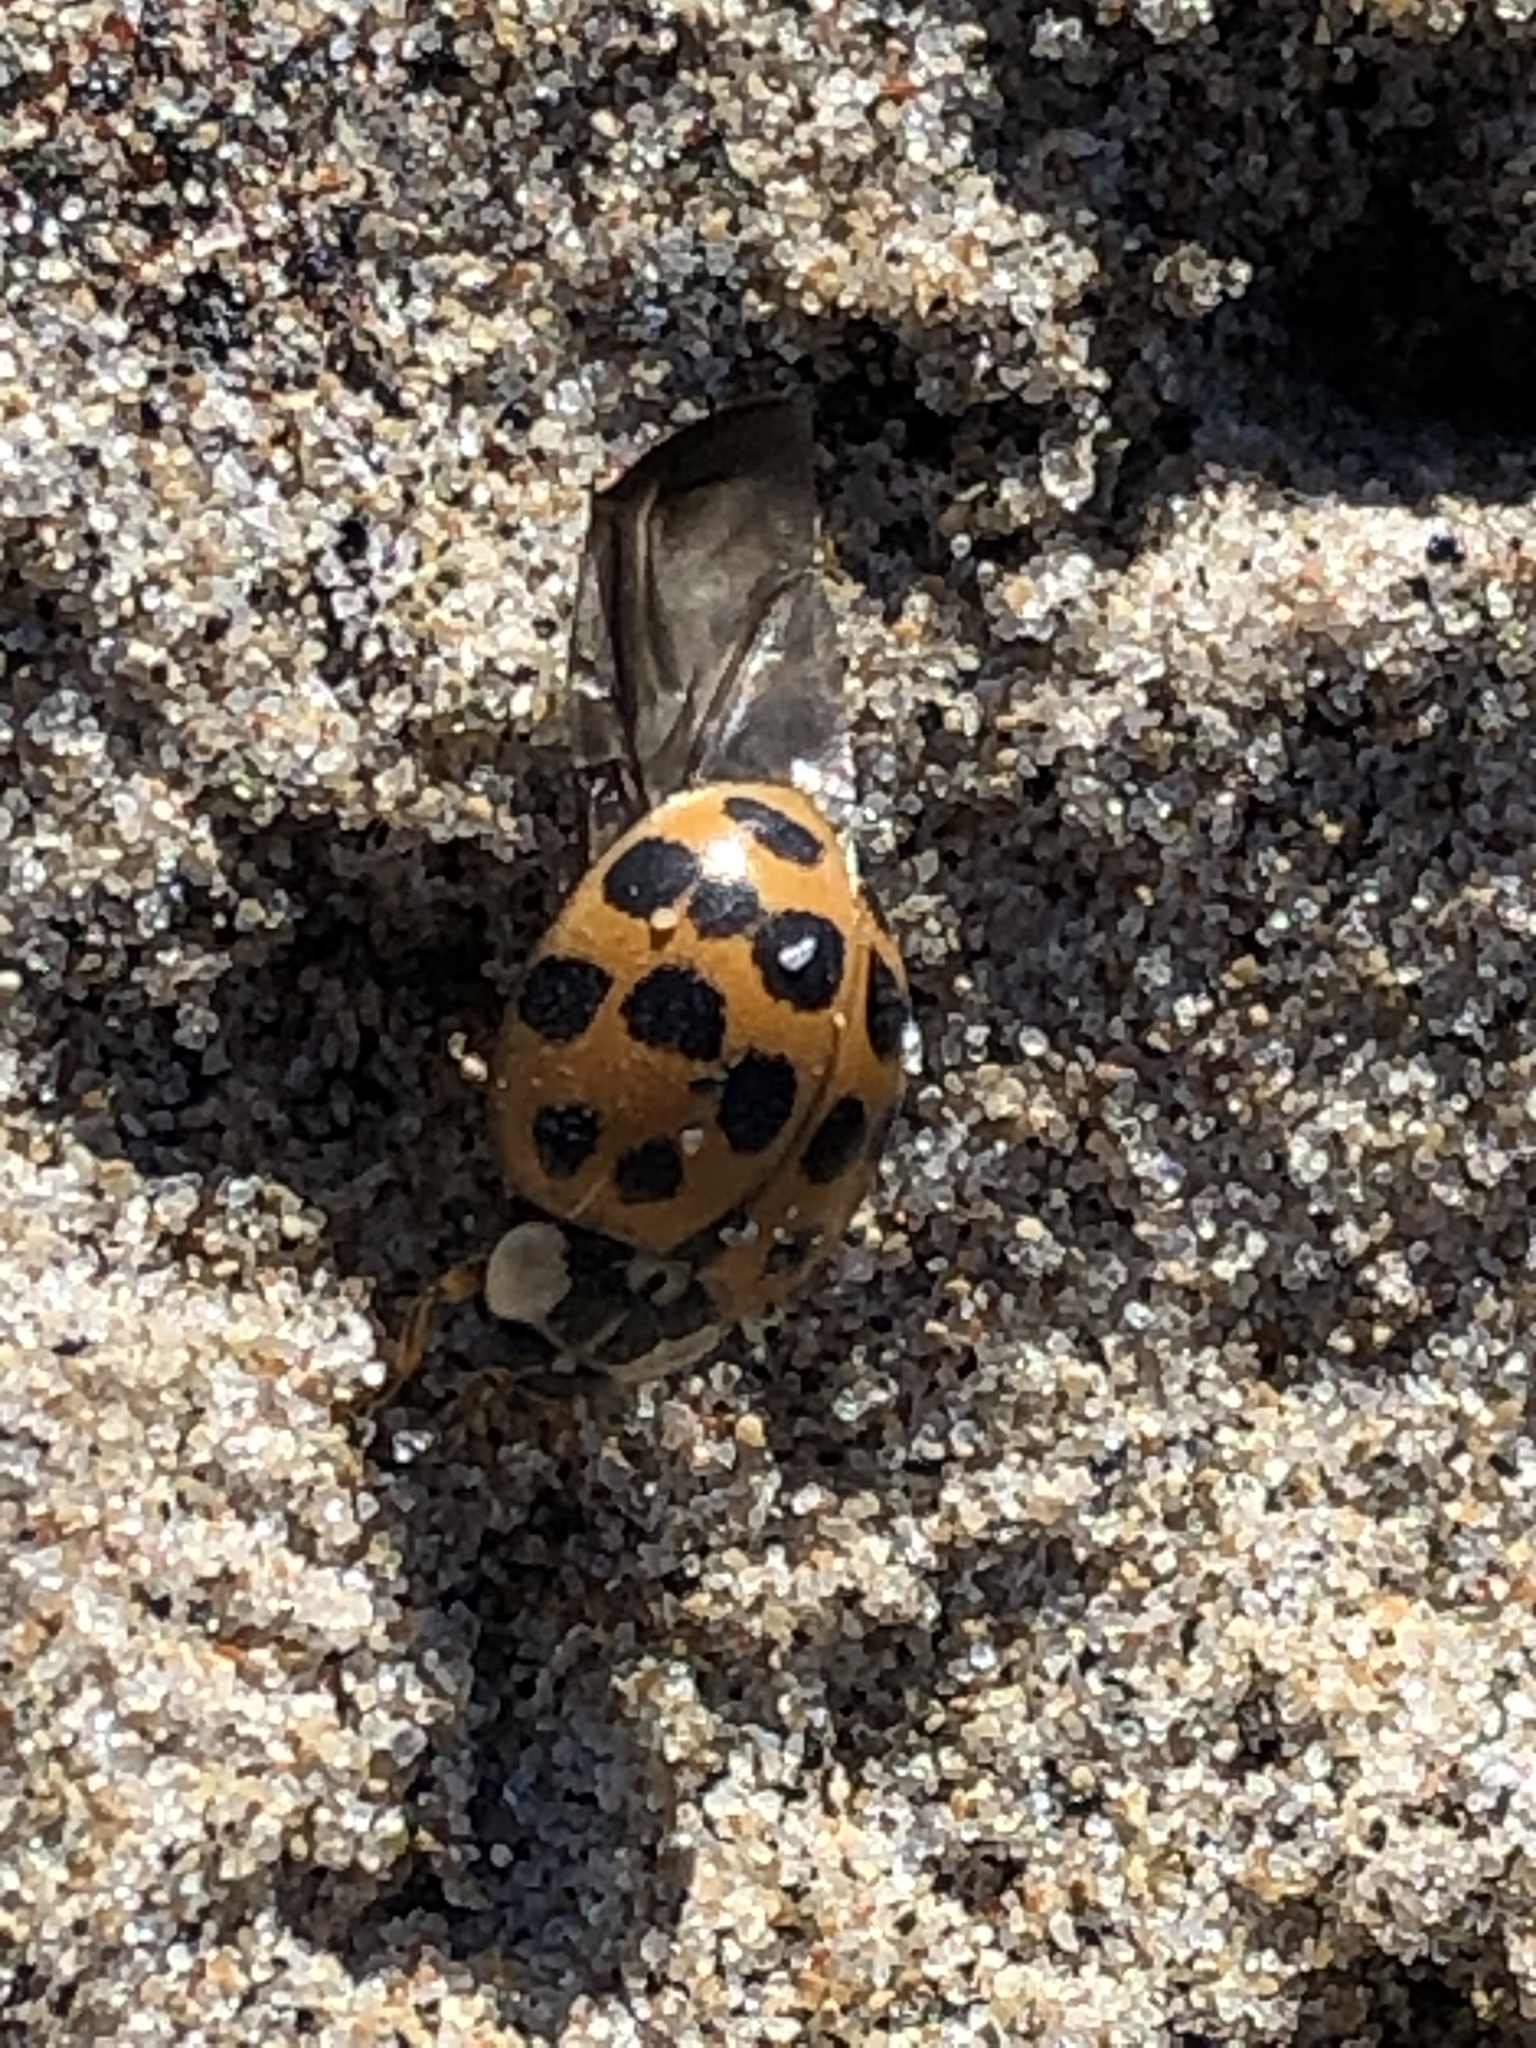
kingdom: Animalia
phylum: Arthropoda
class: Insecta
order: Coleoptera
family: Coccinellidae
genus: Harmonia
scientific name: Harmonia axyridis
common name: Harlequin ladybird
